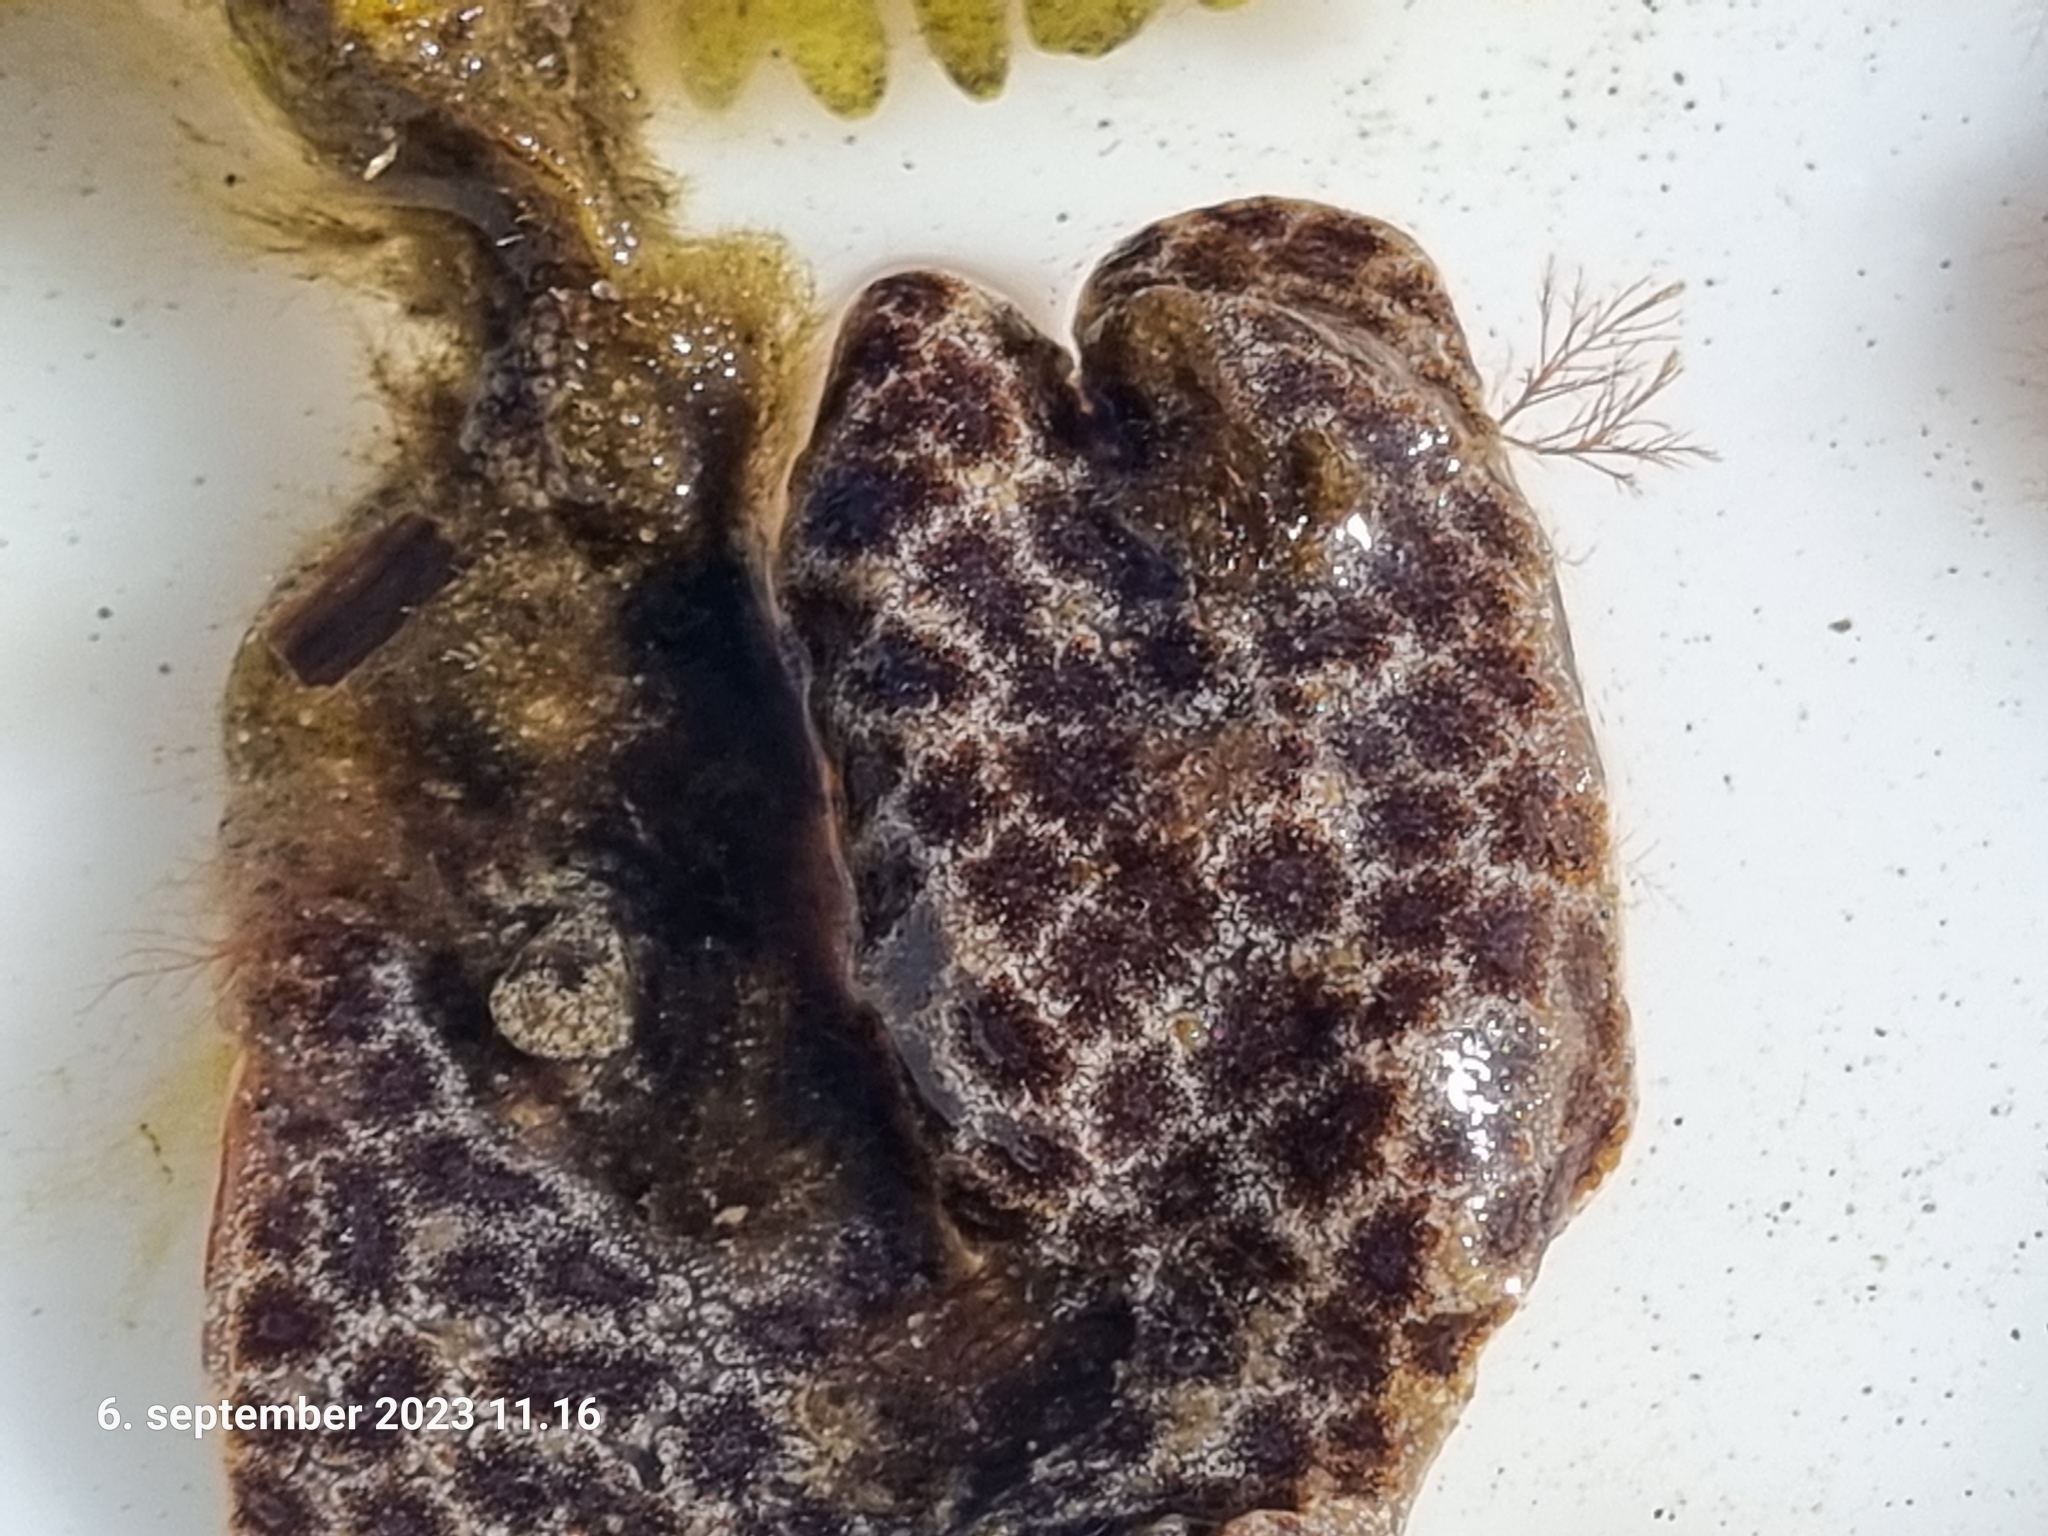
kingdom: Animalia
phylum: Chordata
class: Ascidiacea
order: Stolidobranchia
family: Styelidae
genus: Botryllus
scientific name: Botryllus schlosseri
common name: Golden star tunicate
